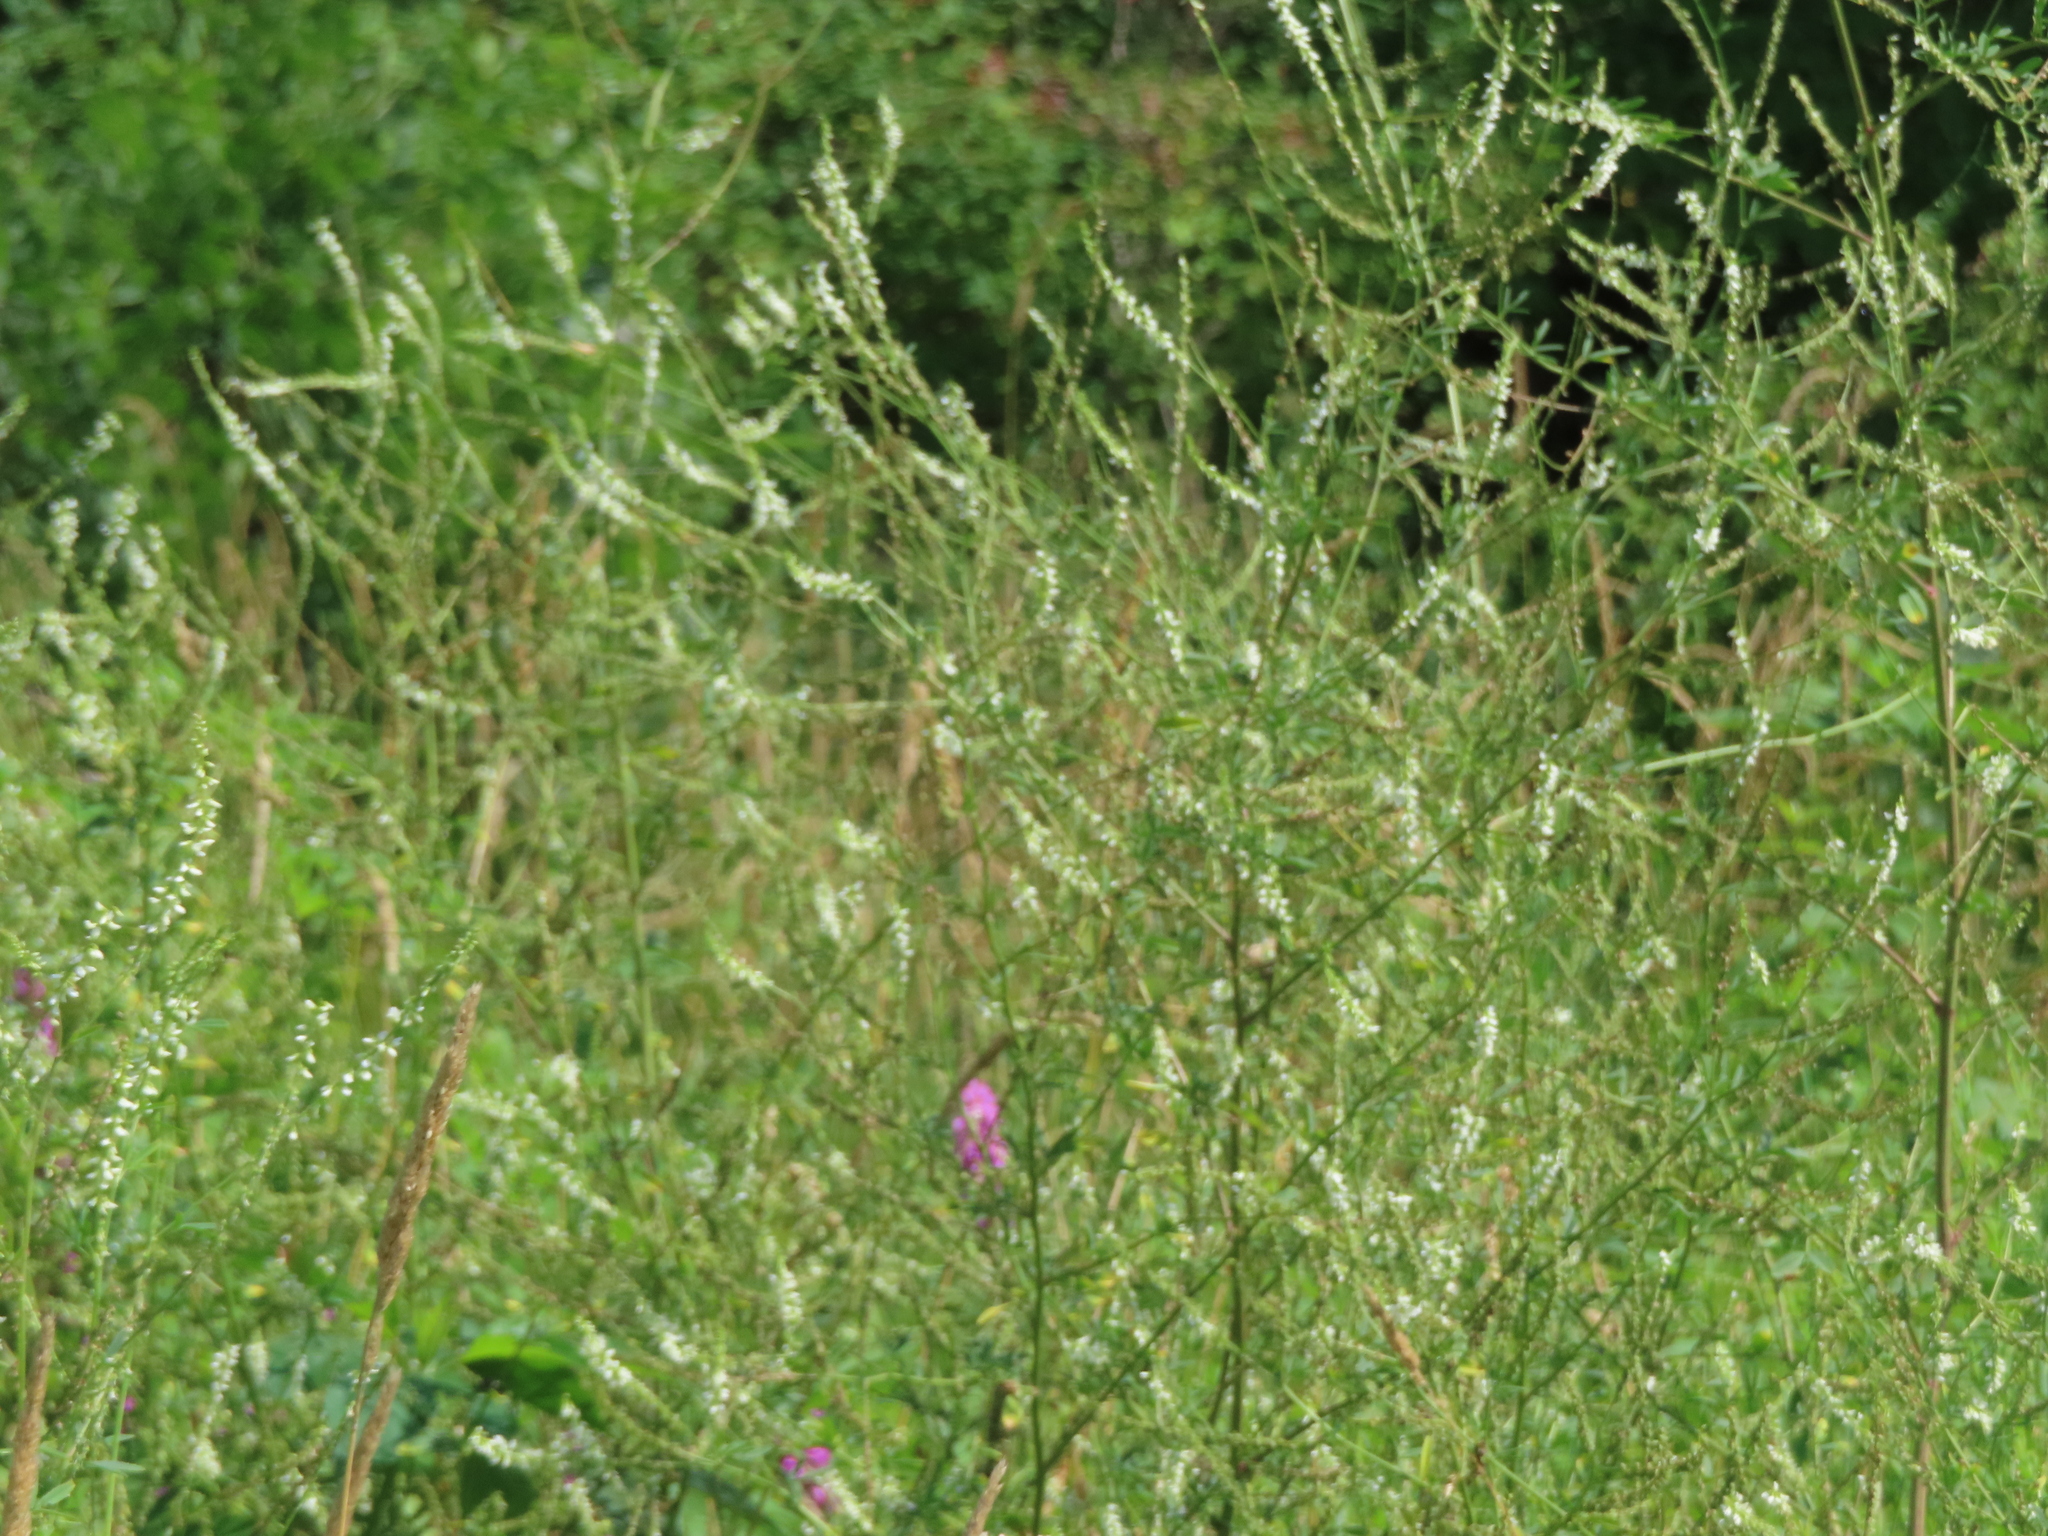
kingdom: Plantae
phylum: Tracheophyta
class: Magnoliopsida
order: Fabales
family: Fabaceae
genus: Melilotus
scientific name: Melilotus albus
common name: White melilot
